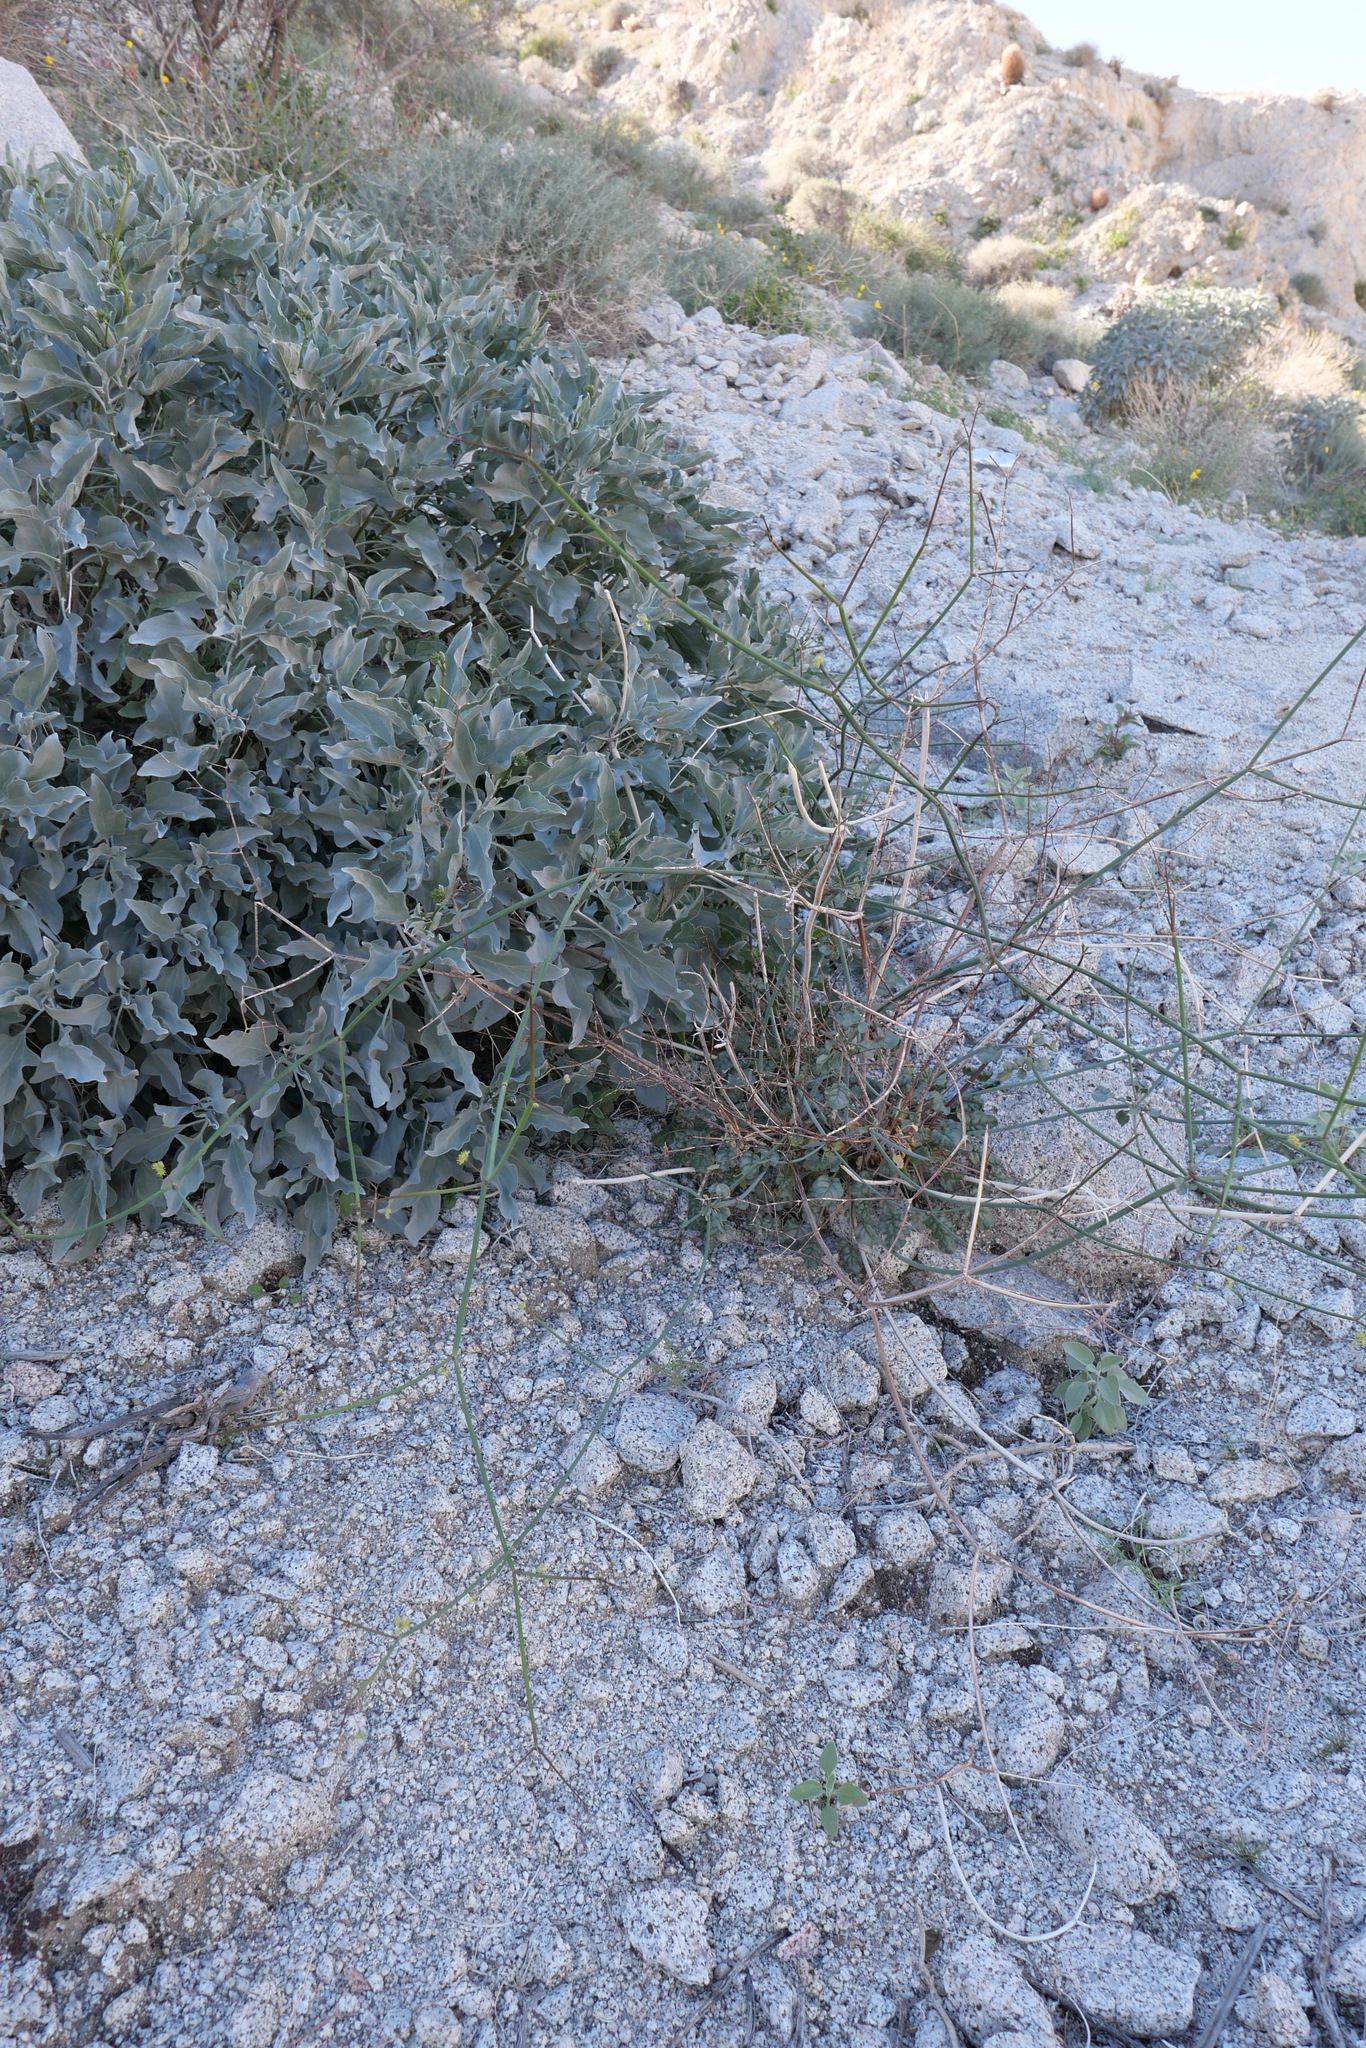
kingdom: Plantae
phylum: Tracheophyta
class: Magnoliopsida
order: Caryophyllales
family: Polygonaceae
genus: Eriogonum
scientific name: Eriogonum inflatum
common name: Desert trumpet
